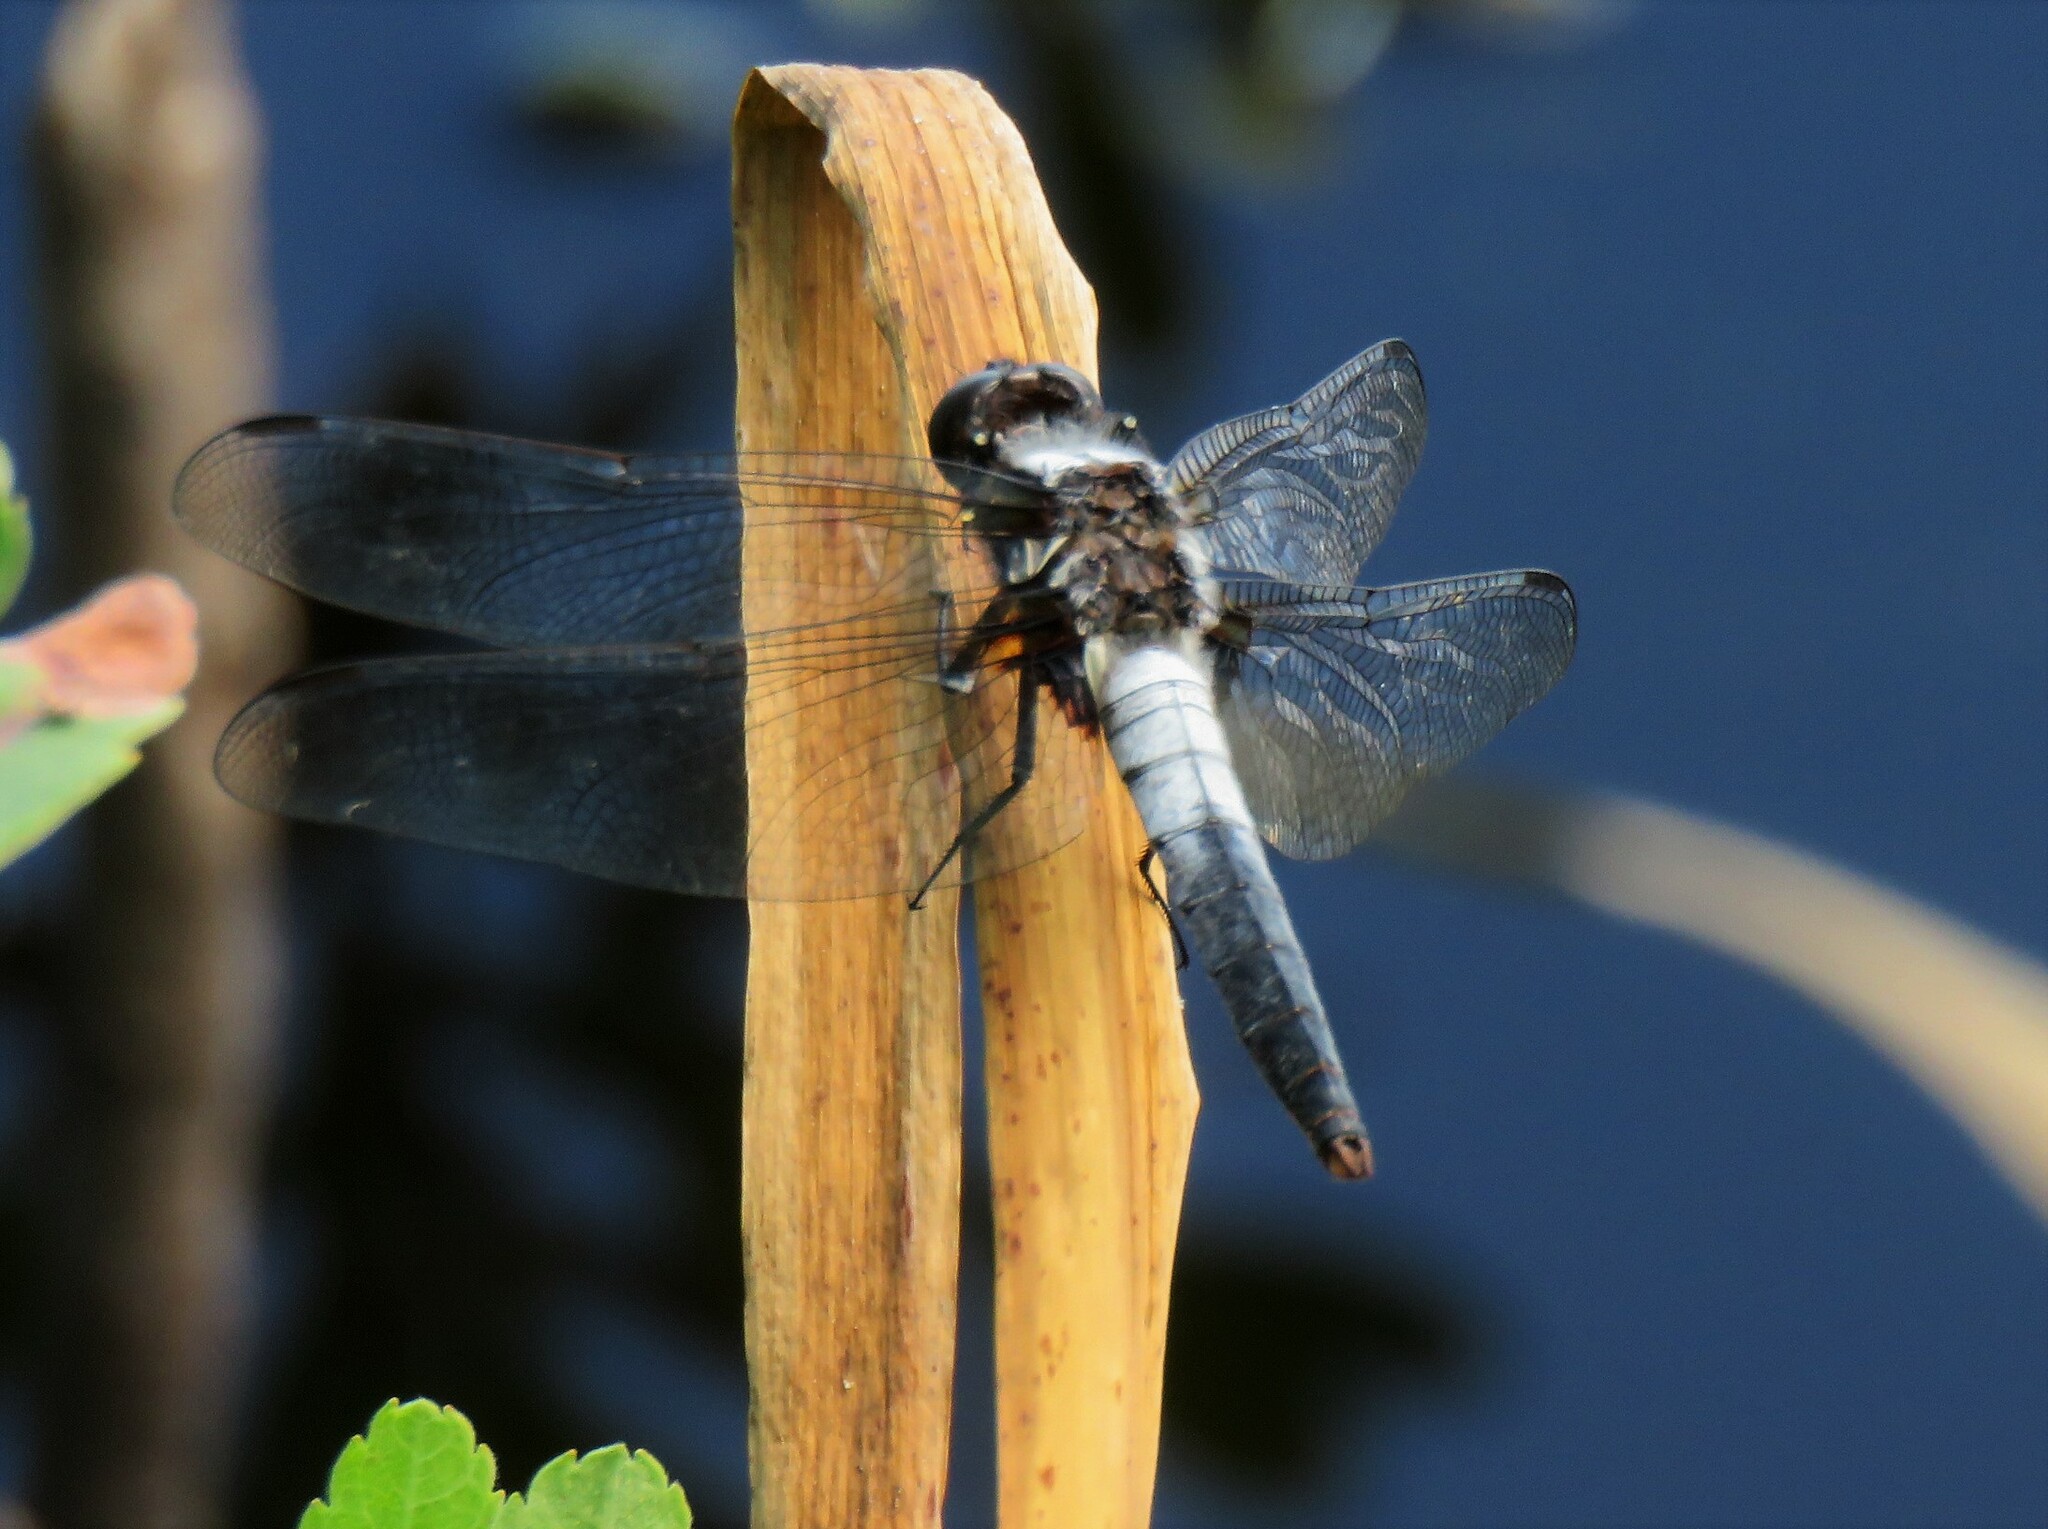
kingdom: Animalia
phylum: Arthropoda
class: Insecta
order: Odonata
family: Libellulidae
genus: Ladona
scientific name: Ladona julia
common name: Chalk-fronted corporal
